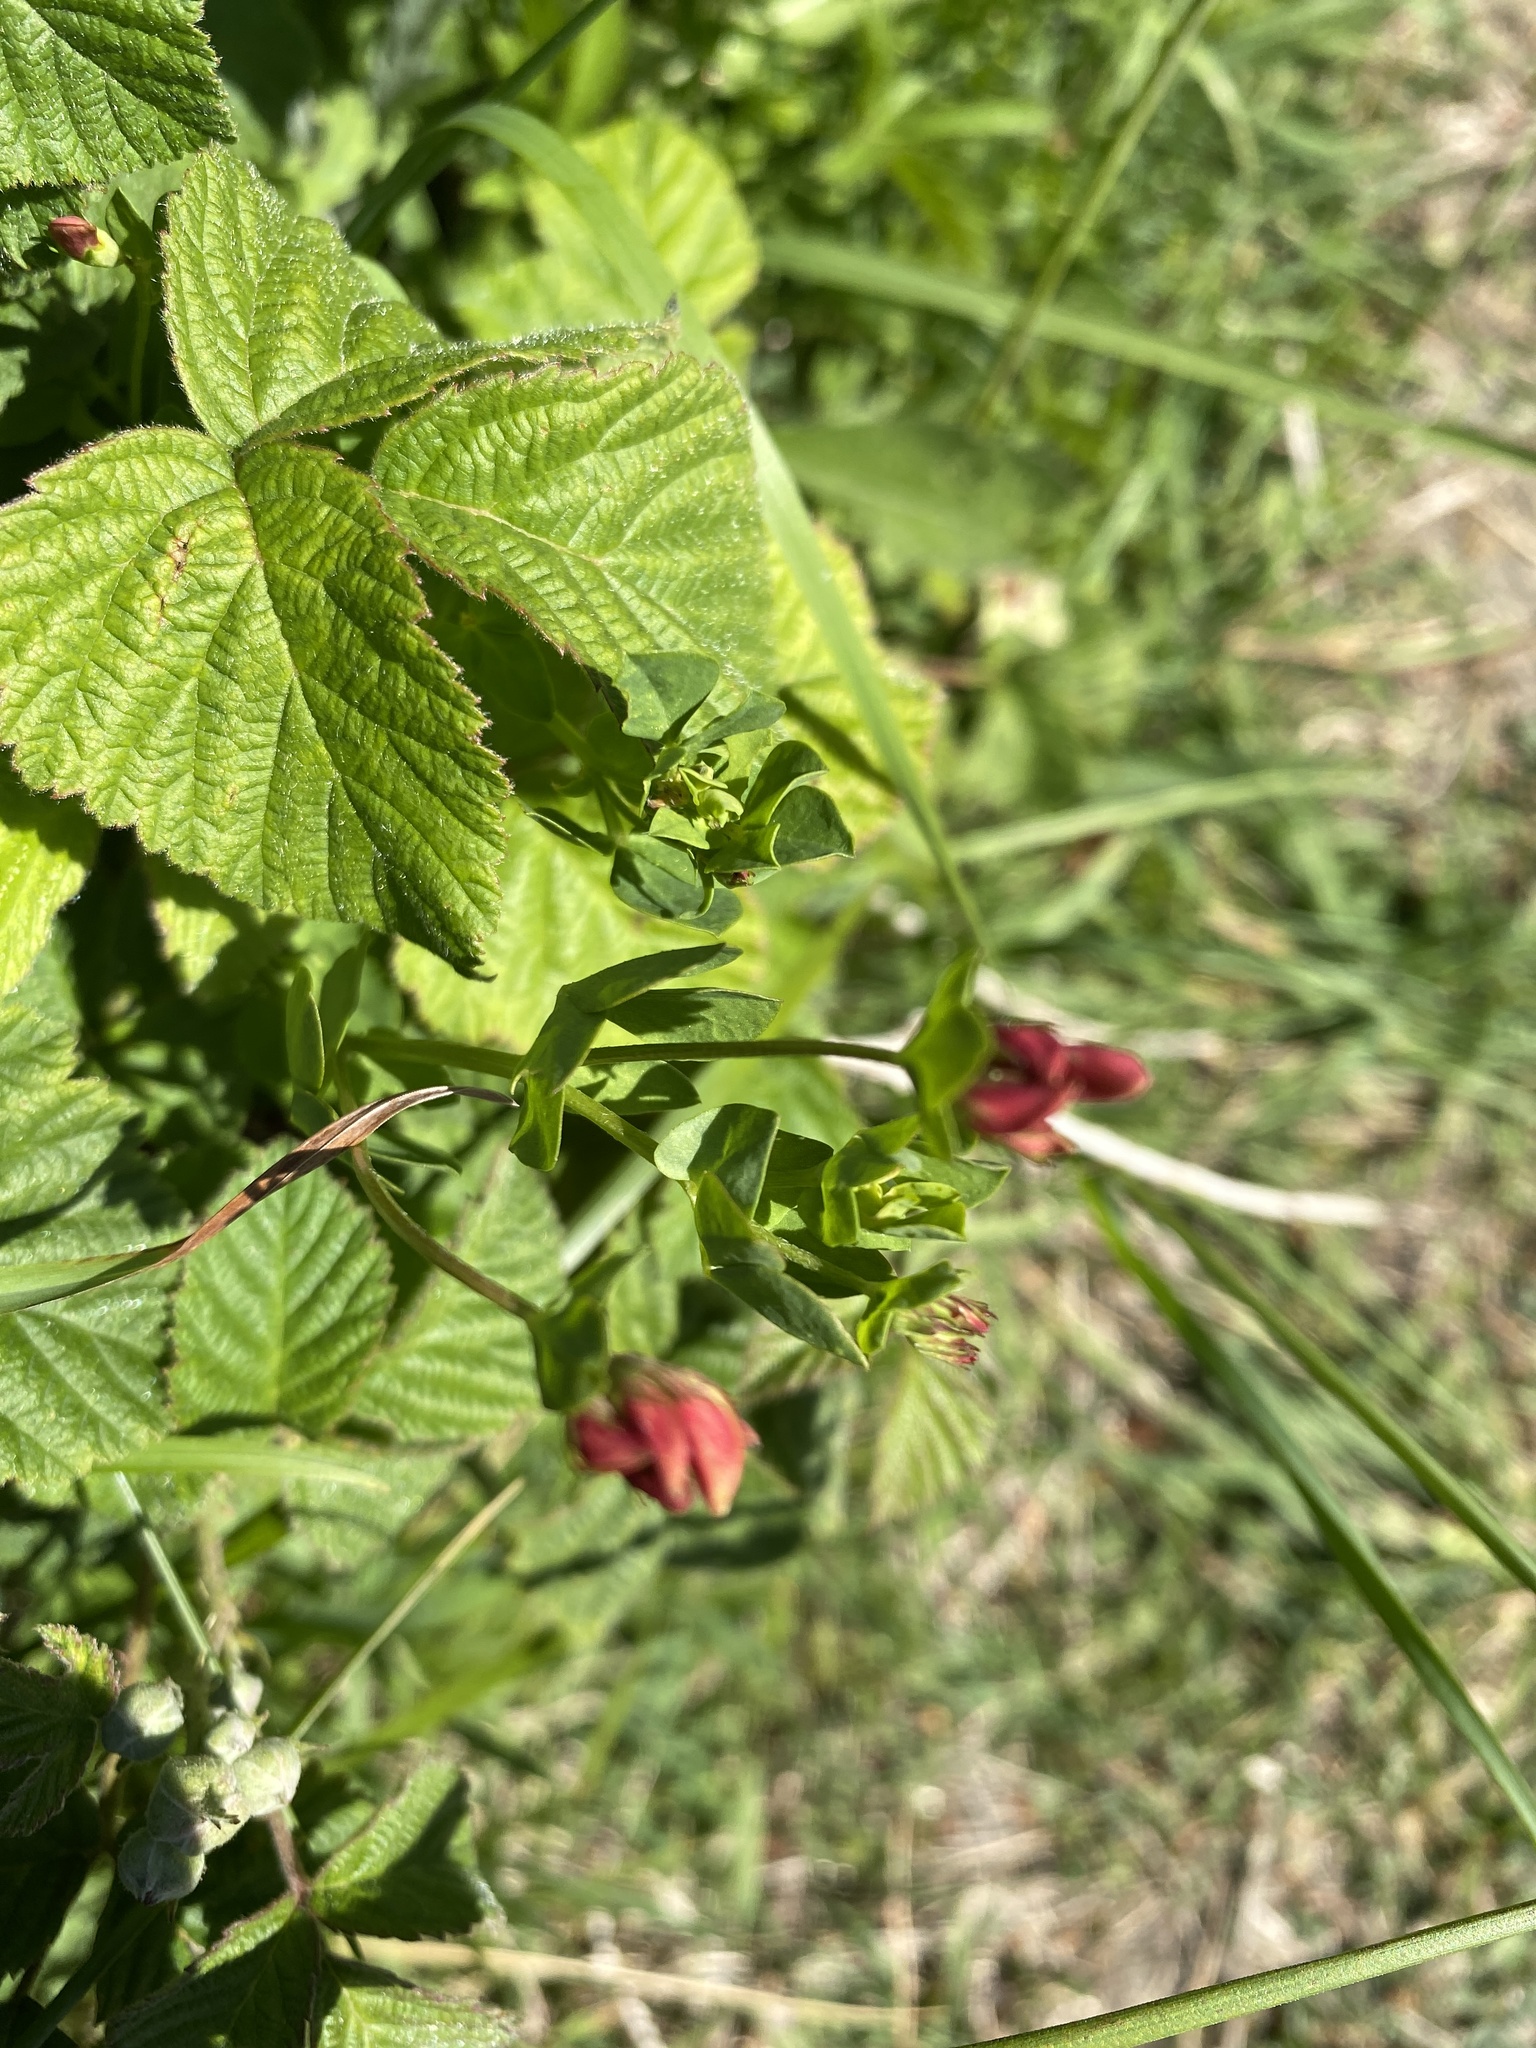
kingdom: Plantae
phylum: Tracheophyta
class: Magnoliopsida
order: Fabales
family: Fabaceae
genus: Lotus
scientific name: Lotus corniculatus
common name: Common bird's-foot-trefoil
